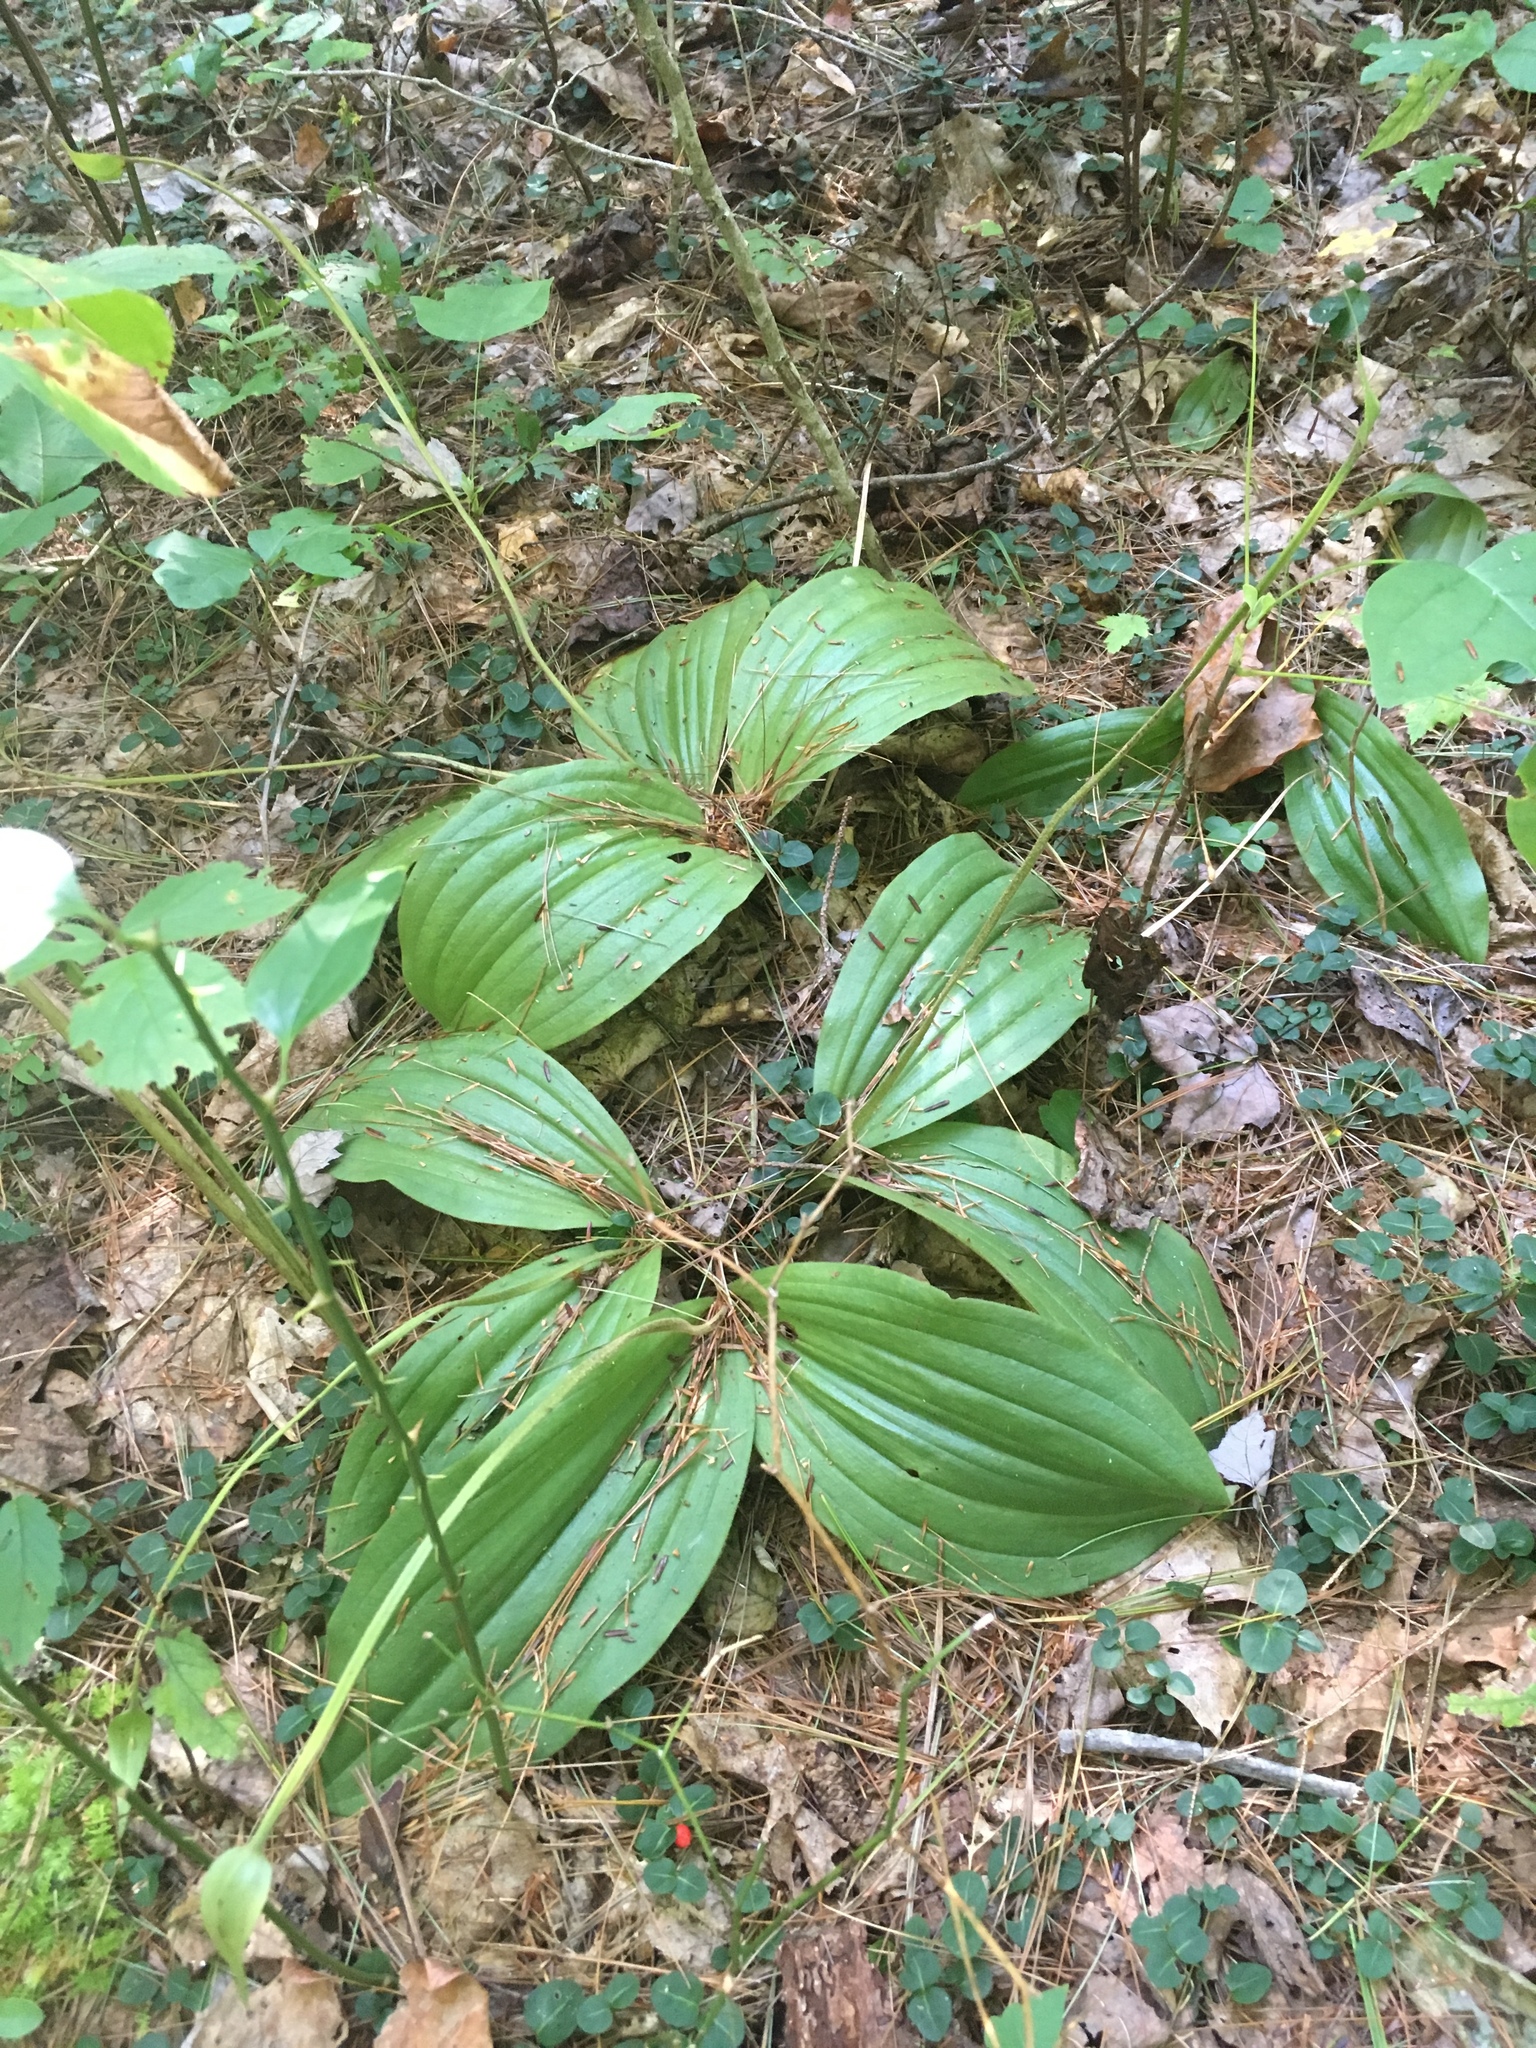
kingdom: Plantae
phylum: Tracheophyta
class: Liliopsida
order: Asparagales
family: Orchidaceae
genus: Cypripedium
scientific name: Cypripedium acaule
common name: Pink lady's-slipper
